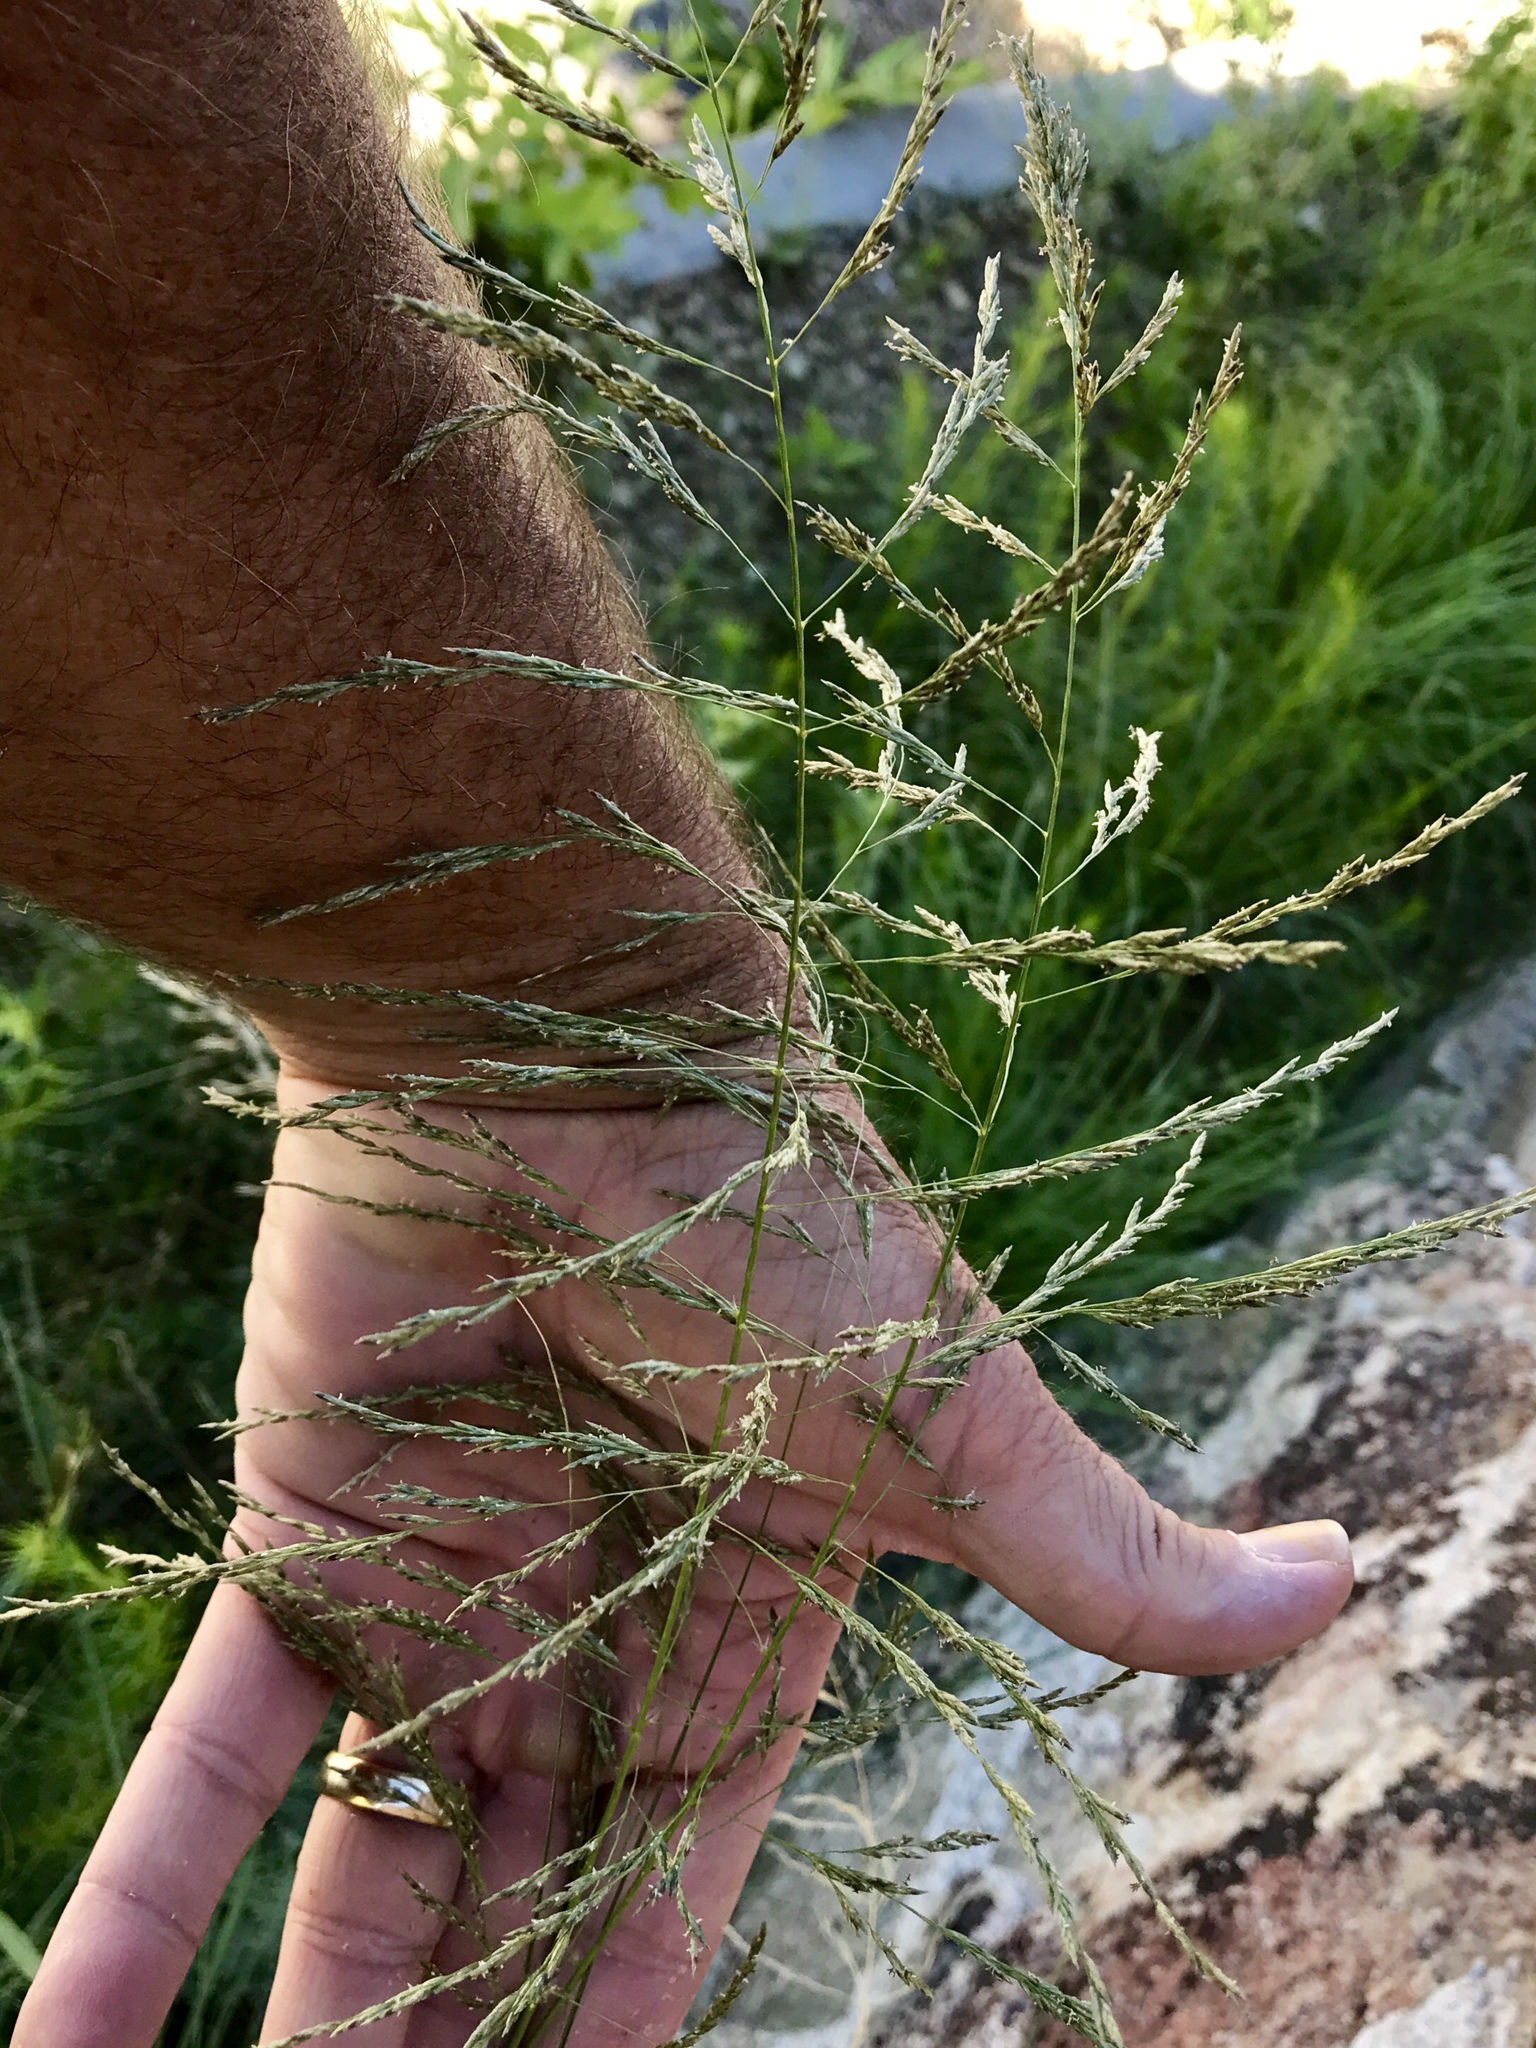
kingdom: Plantae
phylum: Tracheophyta
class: Liliopsida
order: Poales
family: Poaceae
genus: Eragrostis
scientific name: Eragrostis curvula
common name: African love-grass
